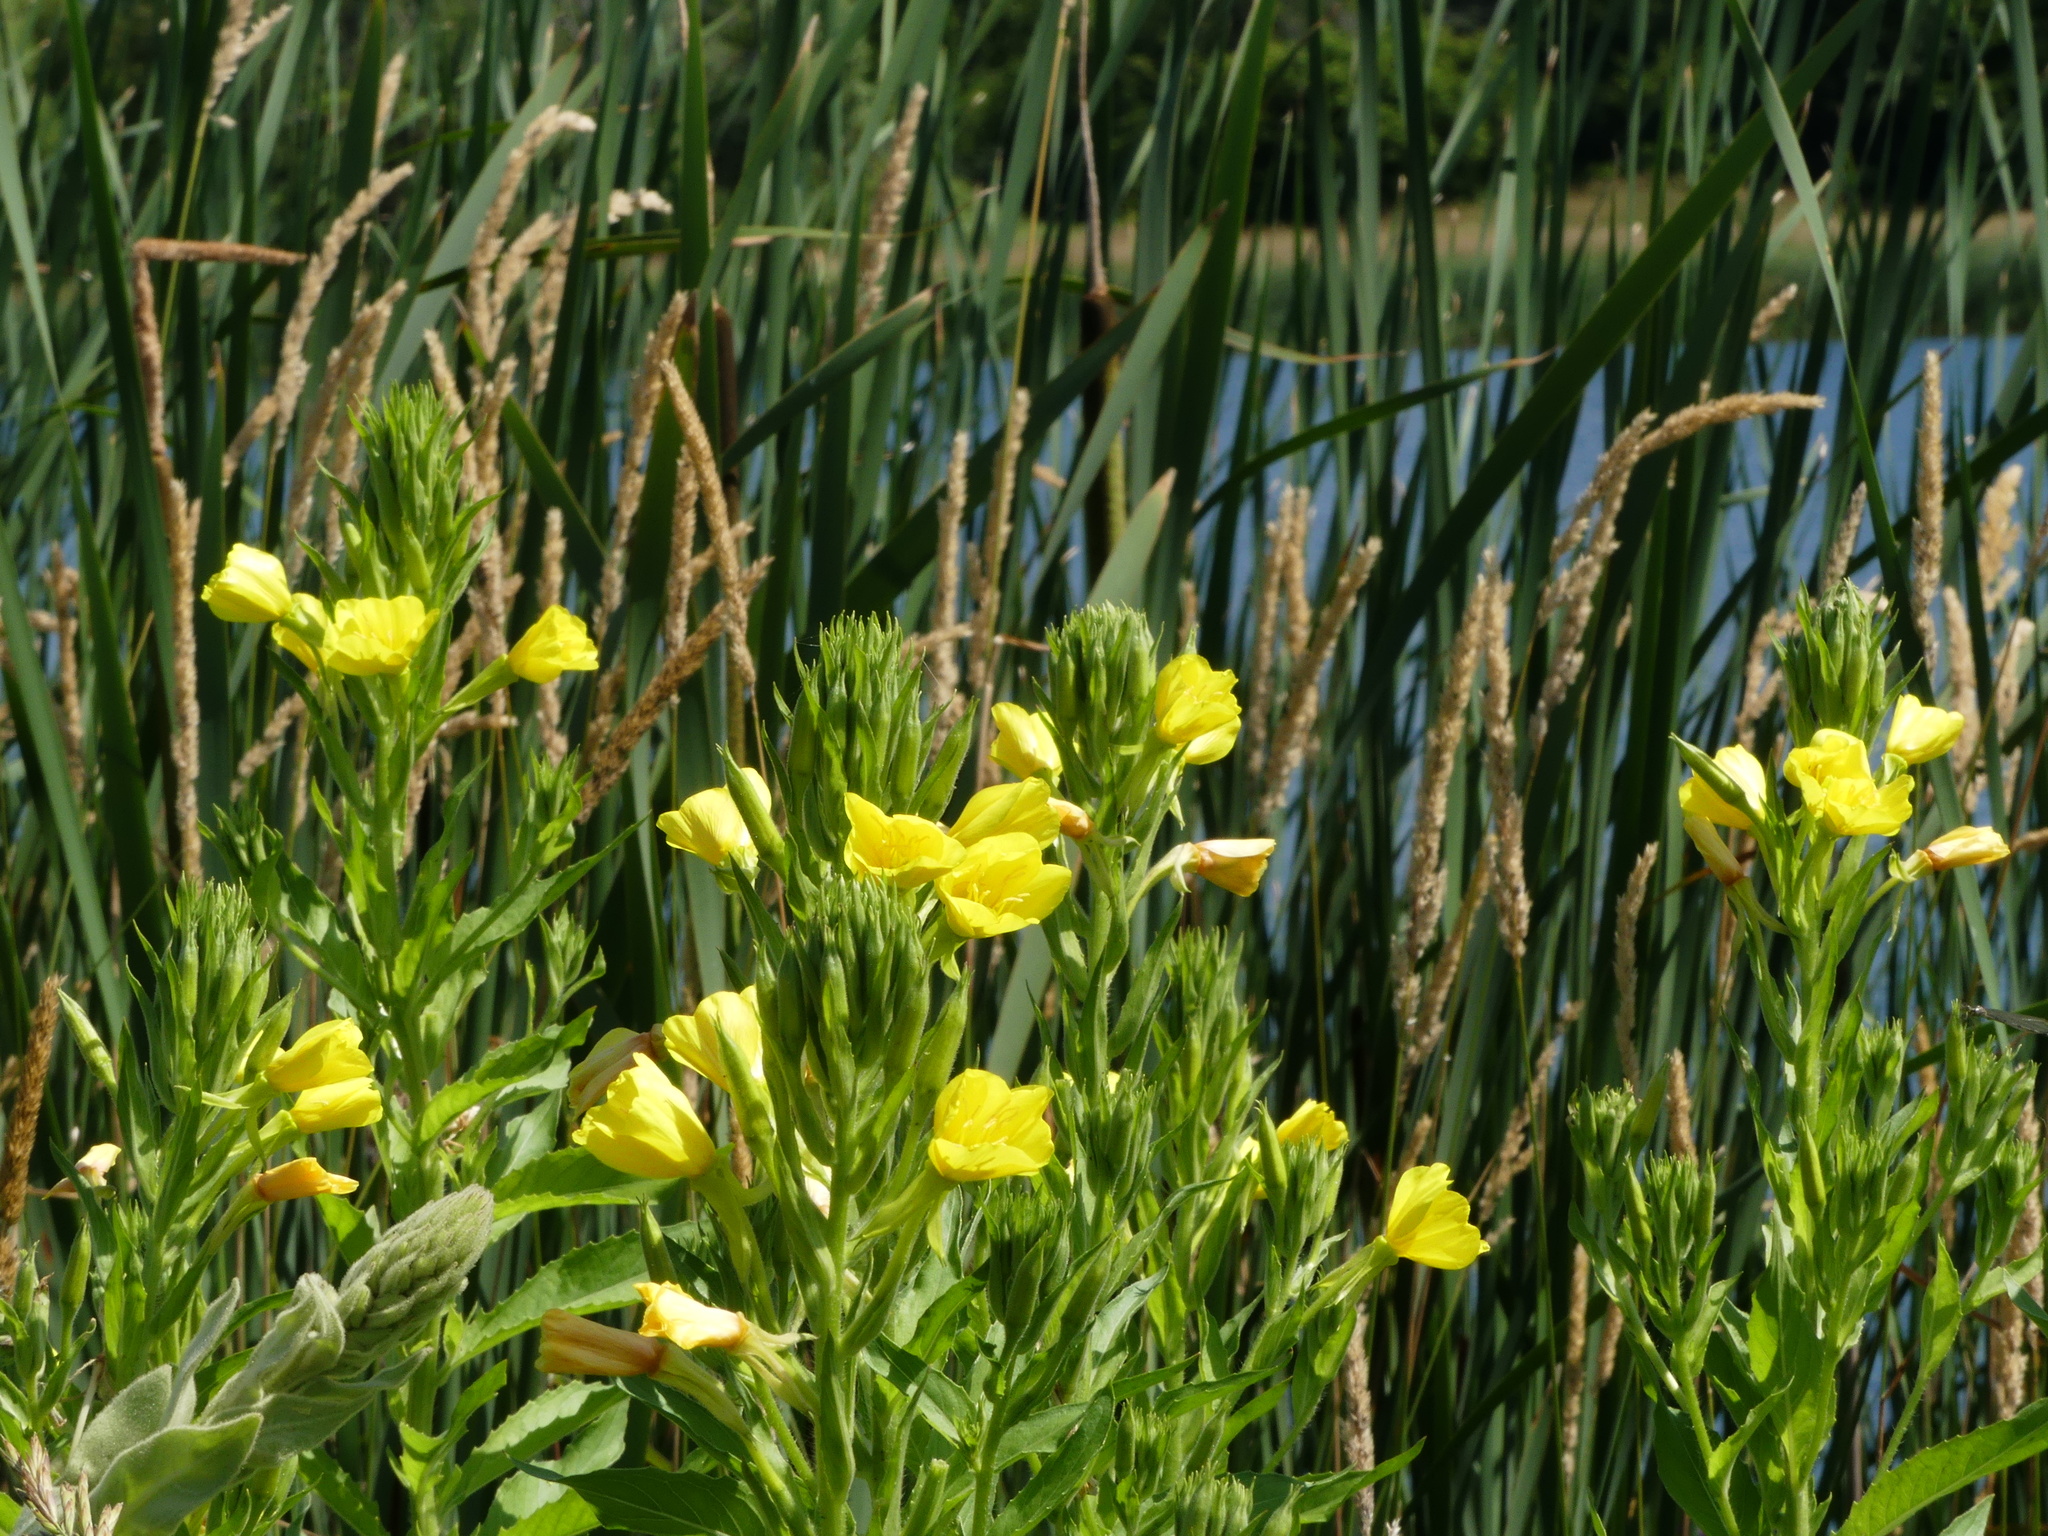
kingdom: Plantae
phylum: Tracheophyta
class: Magnoliopsida
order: Myrtales
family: Onagraceae
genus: Oenothera
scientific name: Oenothera biennis
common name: Common evening-primrose
